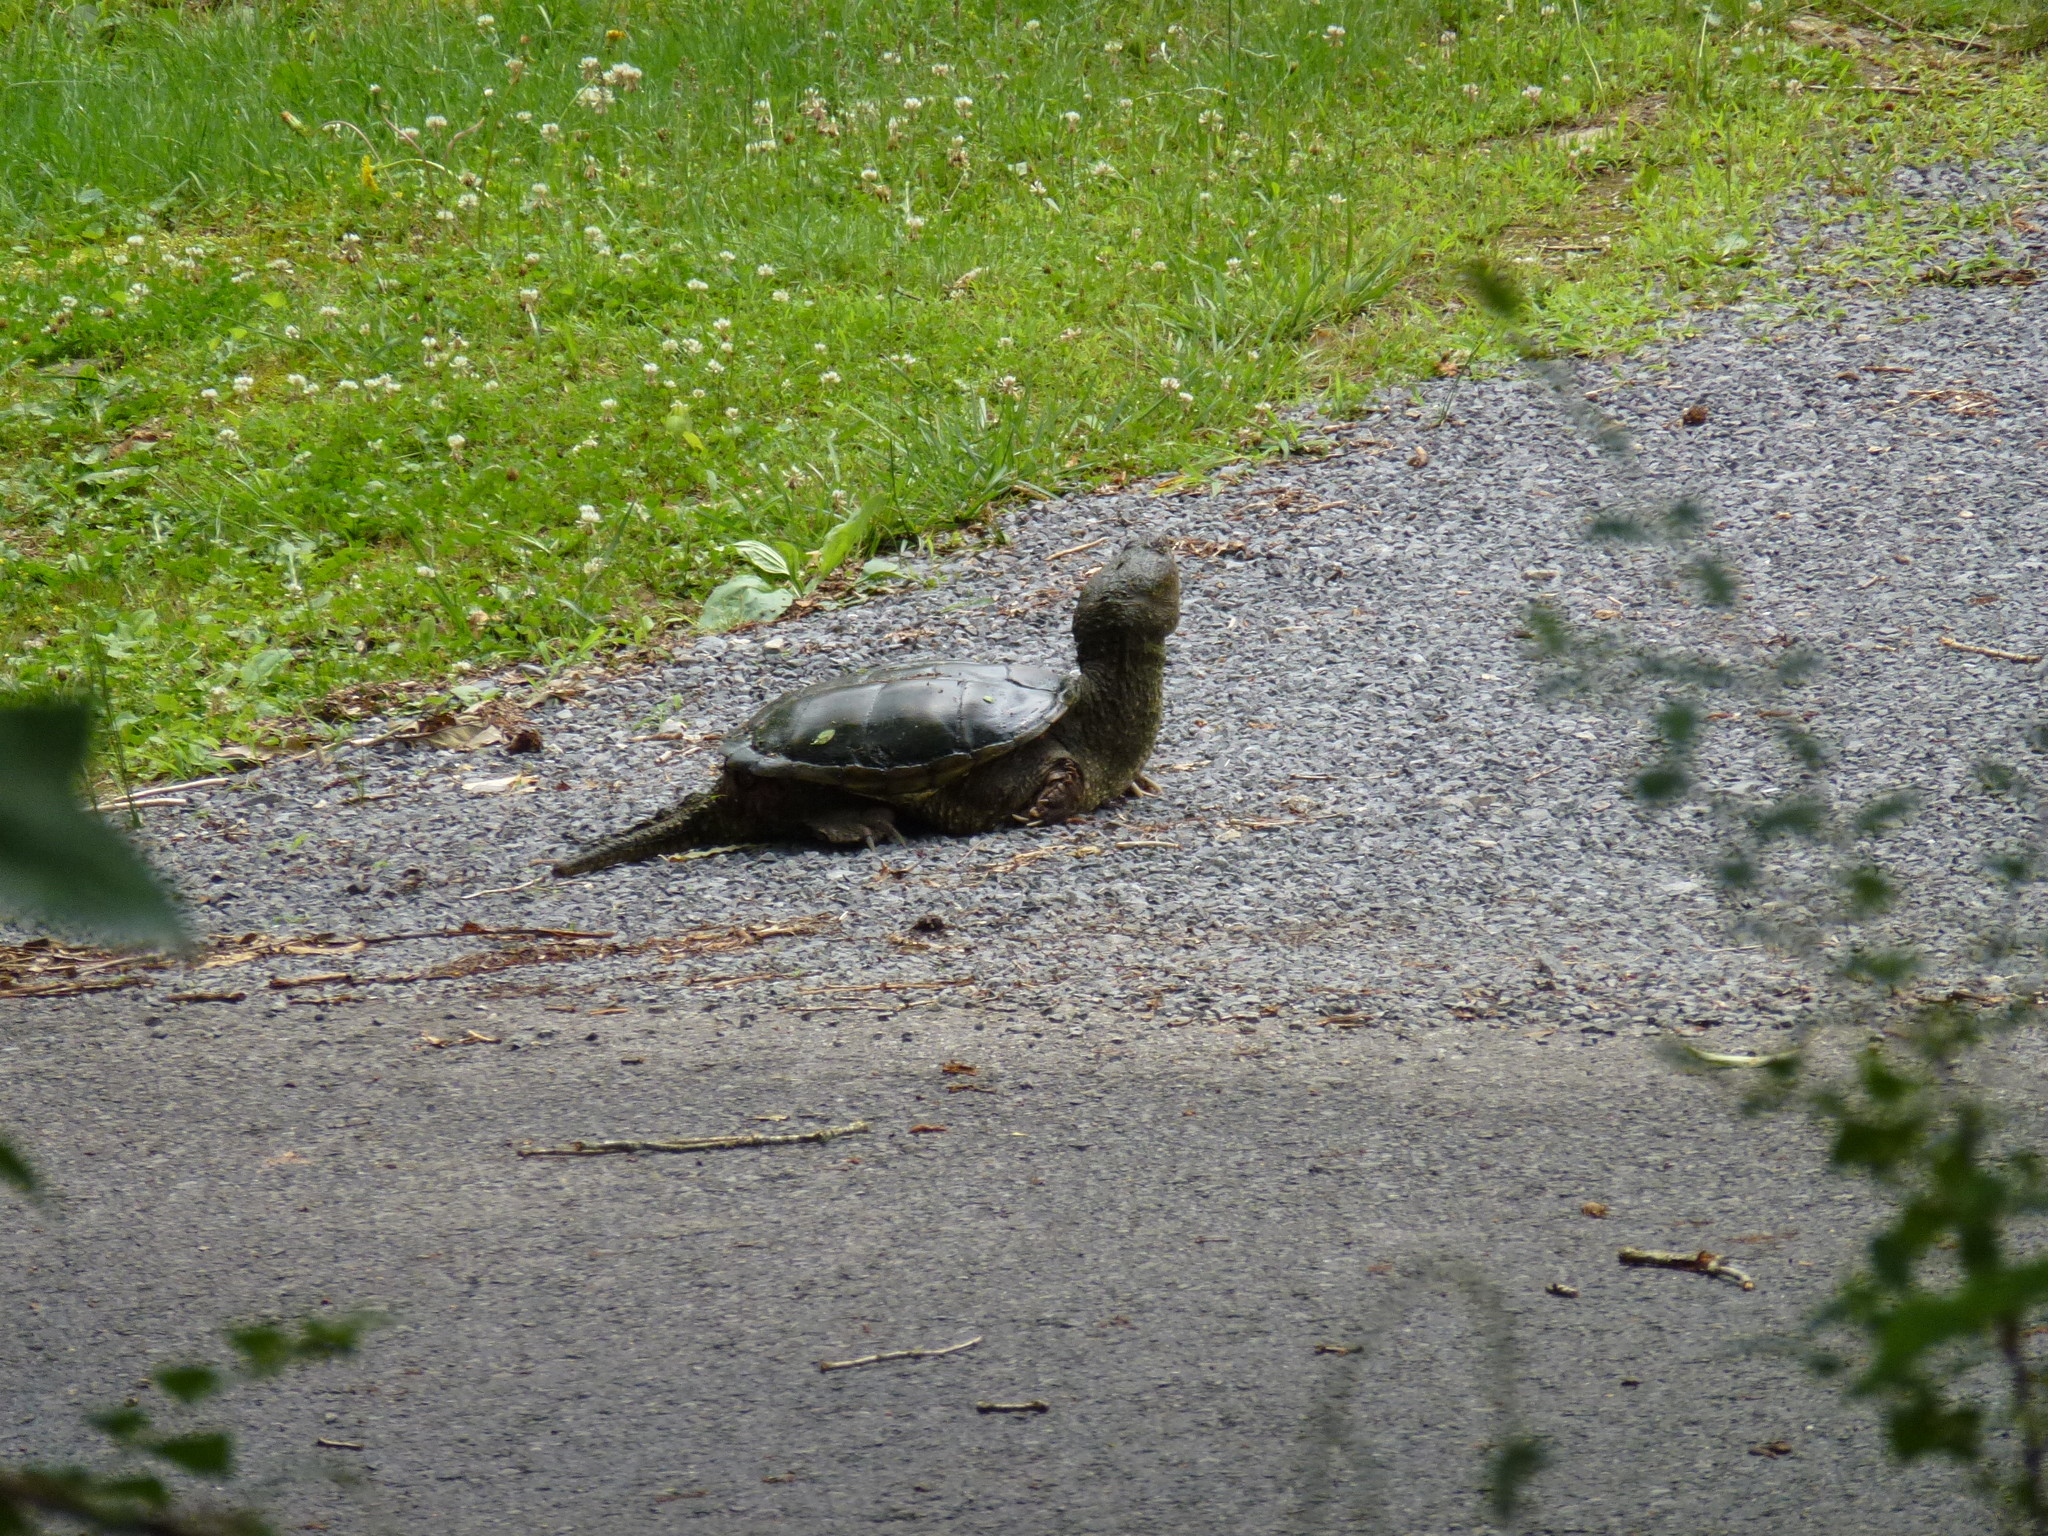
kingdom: Animalia
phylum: Chordata
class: Testudines
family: Chelydridae
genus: Chelydra
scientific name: Chelydra serpentina
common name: Common snapping turtle
